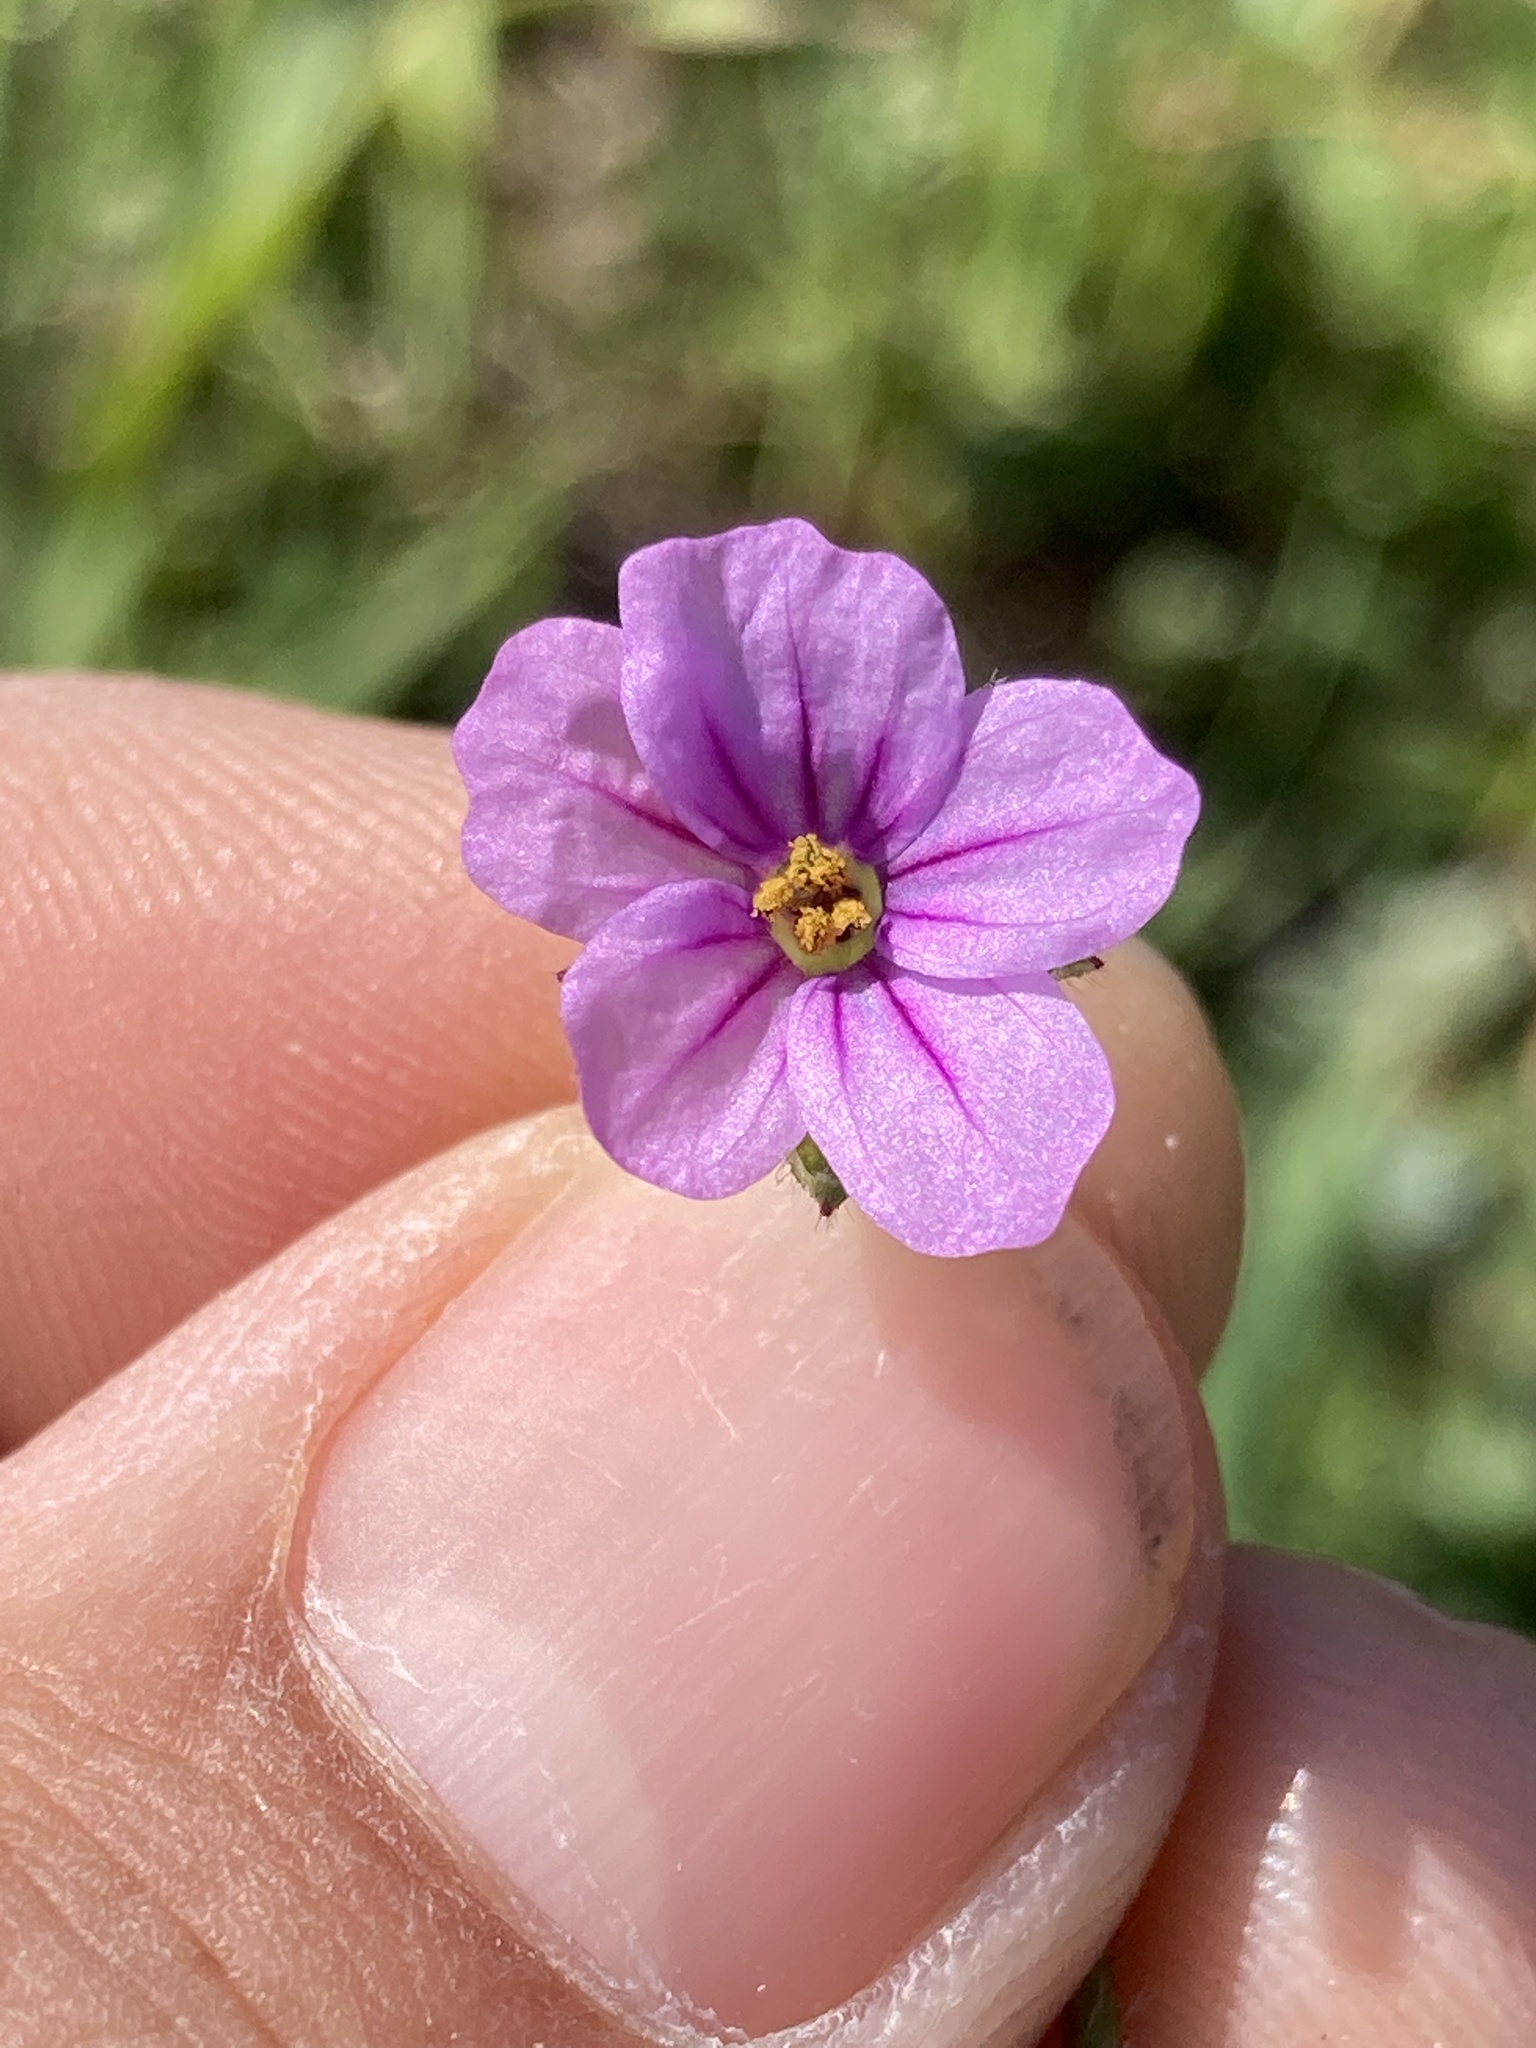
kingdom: Plantae
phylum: Tracheophyta
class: Magnoliopsida
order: Geraniales
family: Geraniaceae
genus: Erodium
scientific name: Erodium botrys
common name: Mediterranean stork's-bill
